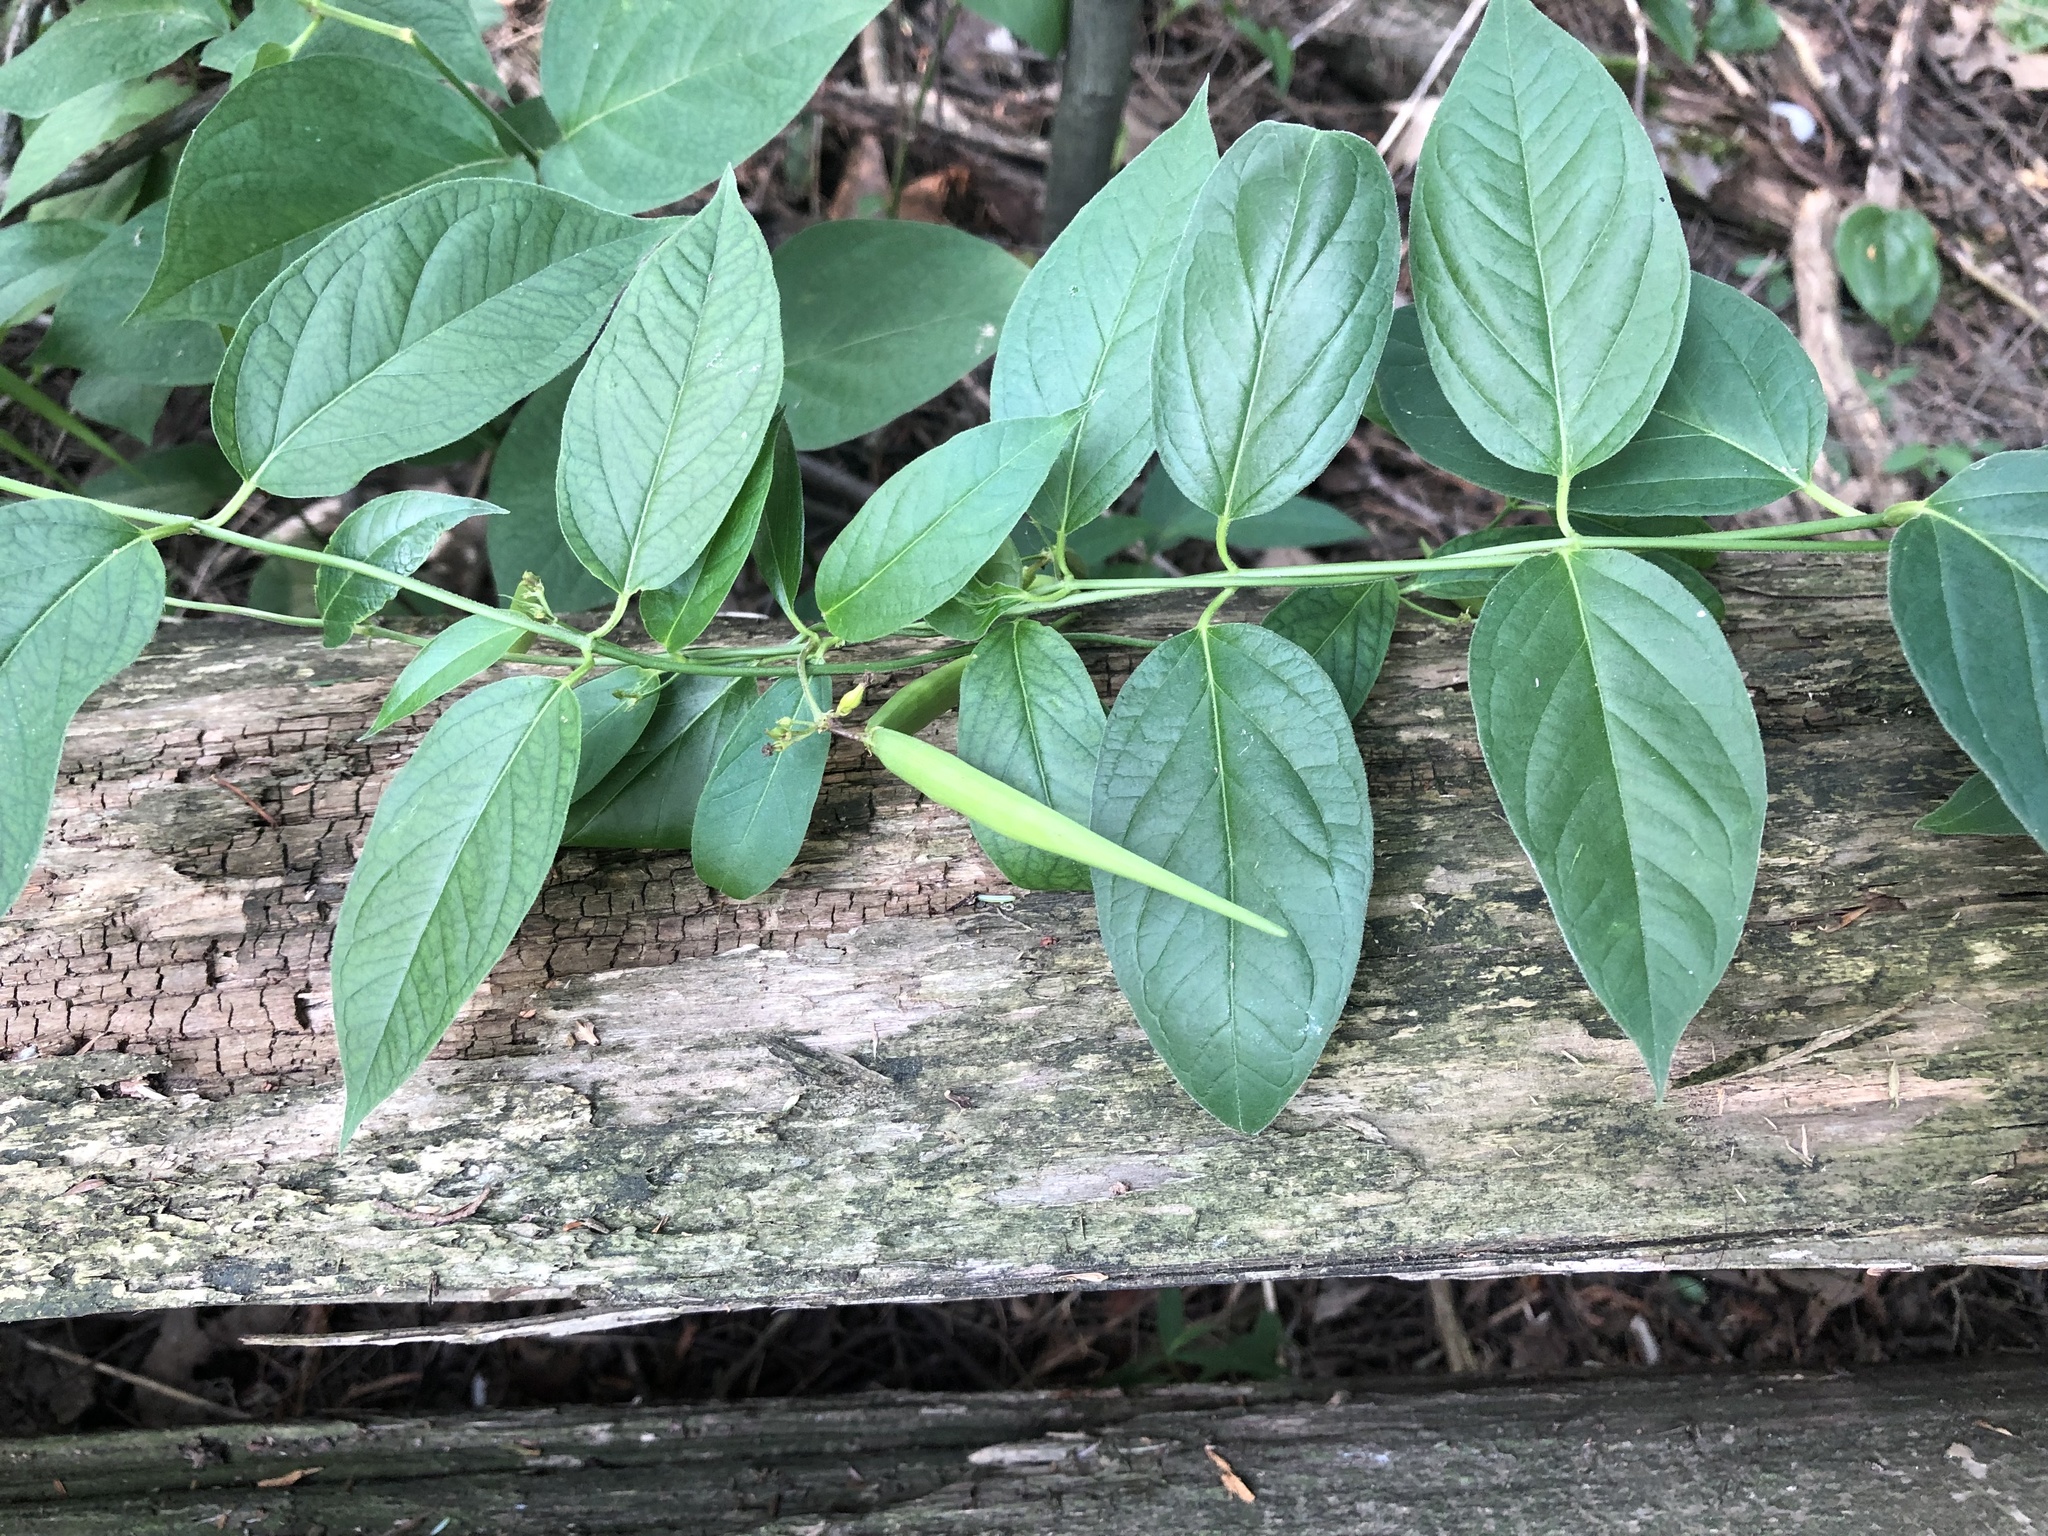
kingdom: Plantae
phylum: Tracheophyta
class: Magnoliopsida
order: Gentianales
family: Apocynaceae
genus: Vincetoxicum
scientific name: Vincetoxicum rossicum
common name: Dog-strangling vine
